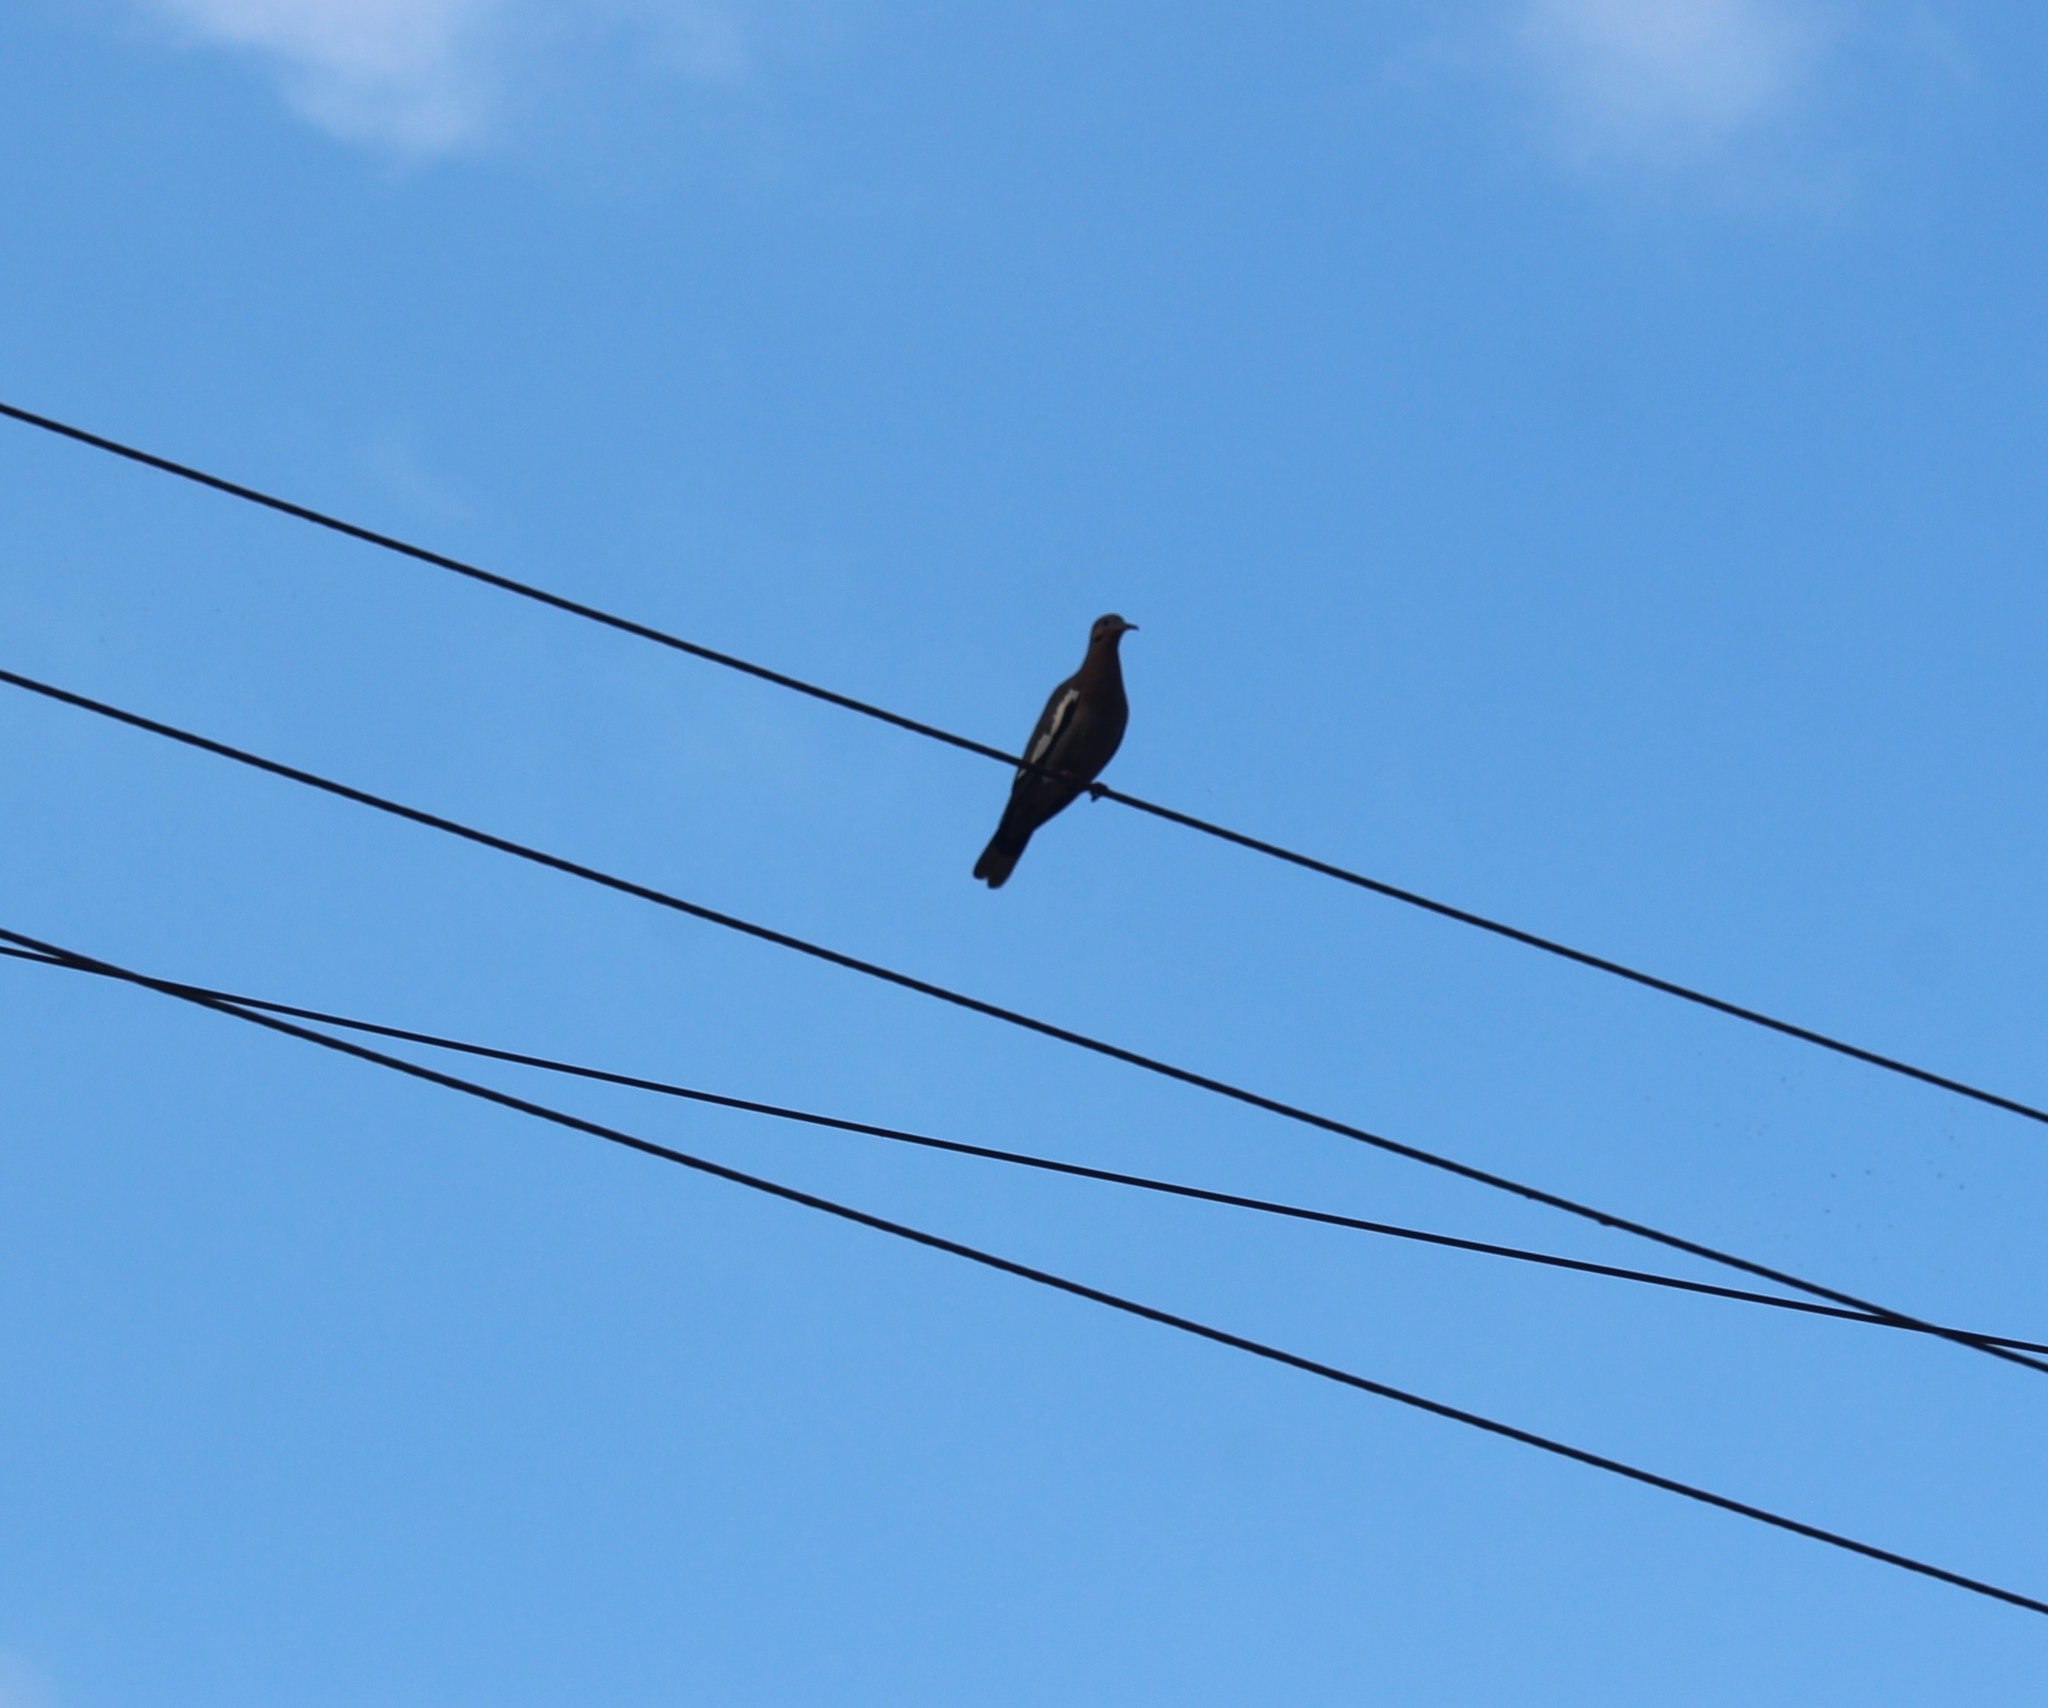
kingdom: Animalia
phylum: Chordata
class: Aves
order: Columbiformes
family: Columbidae
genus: Zenaida
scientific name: Zenaida asiatica
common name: White-winged dove
